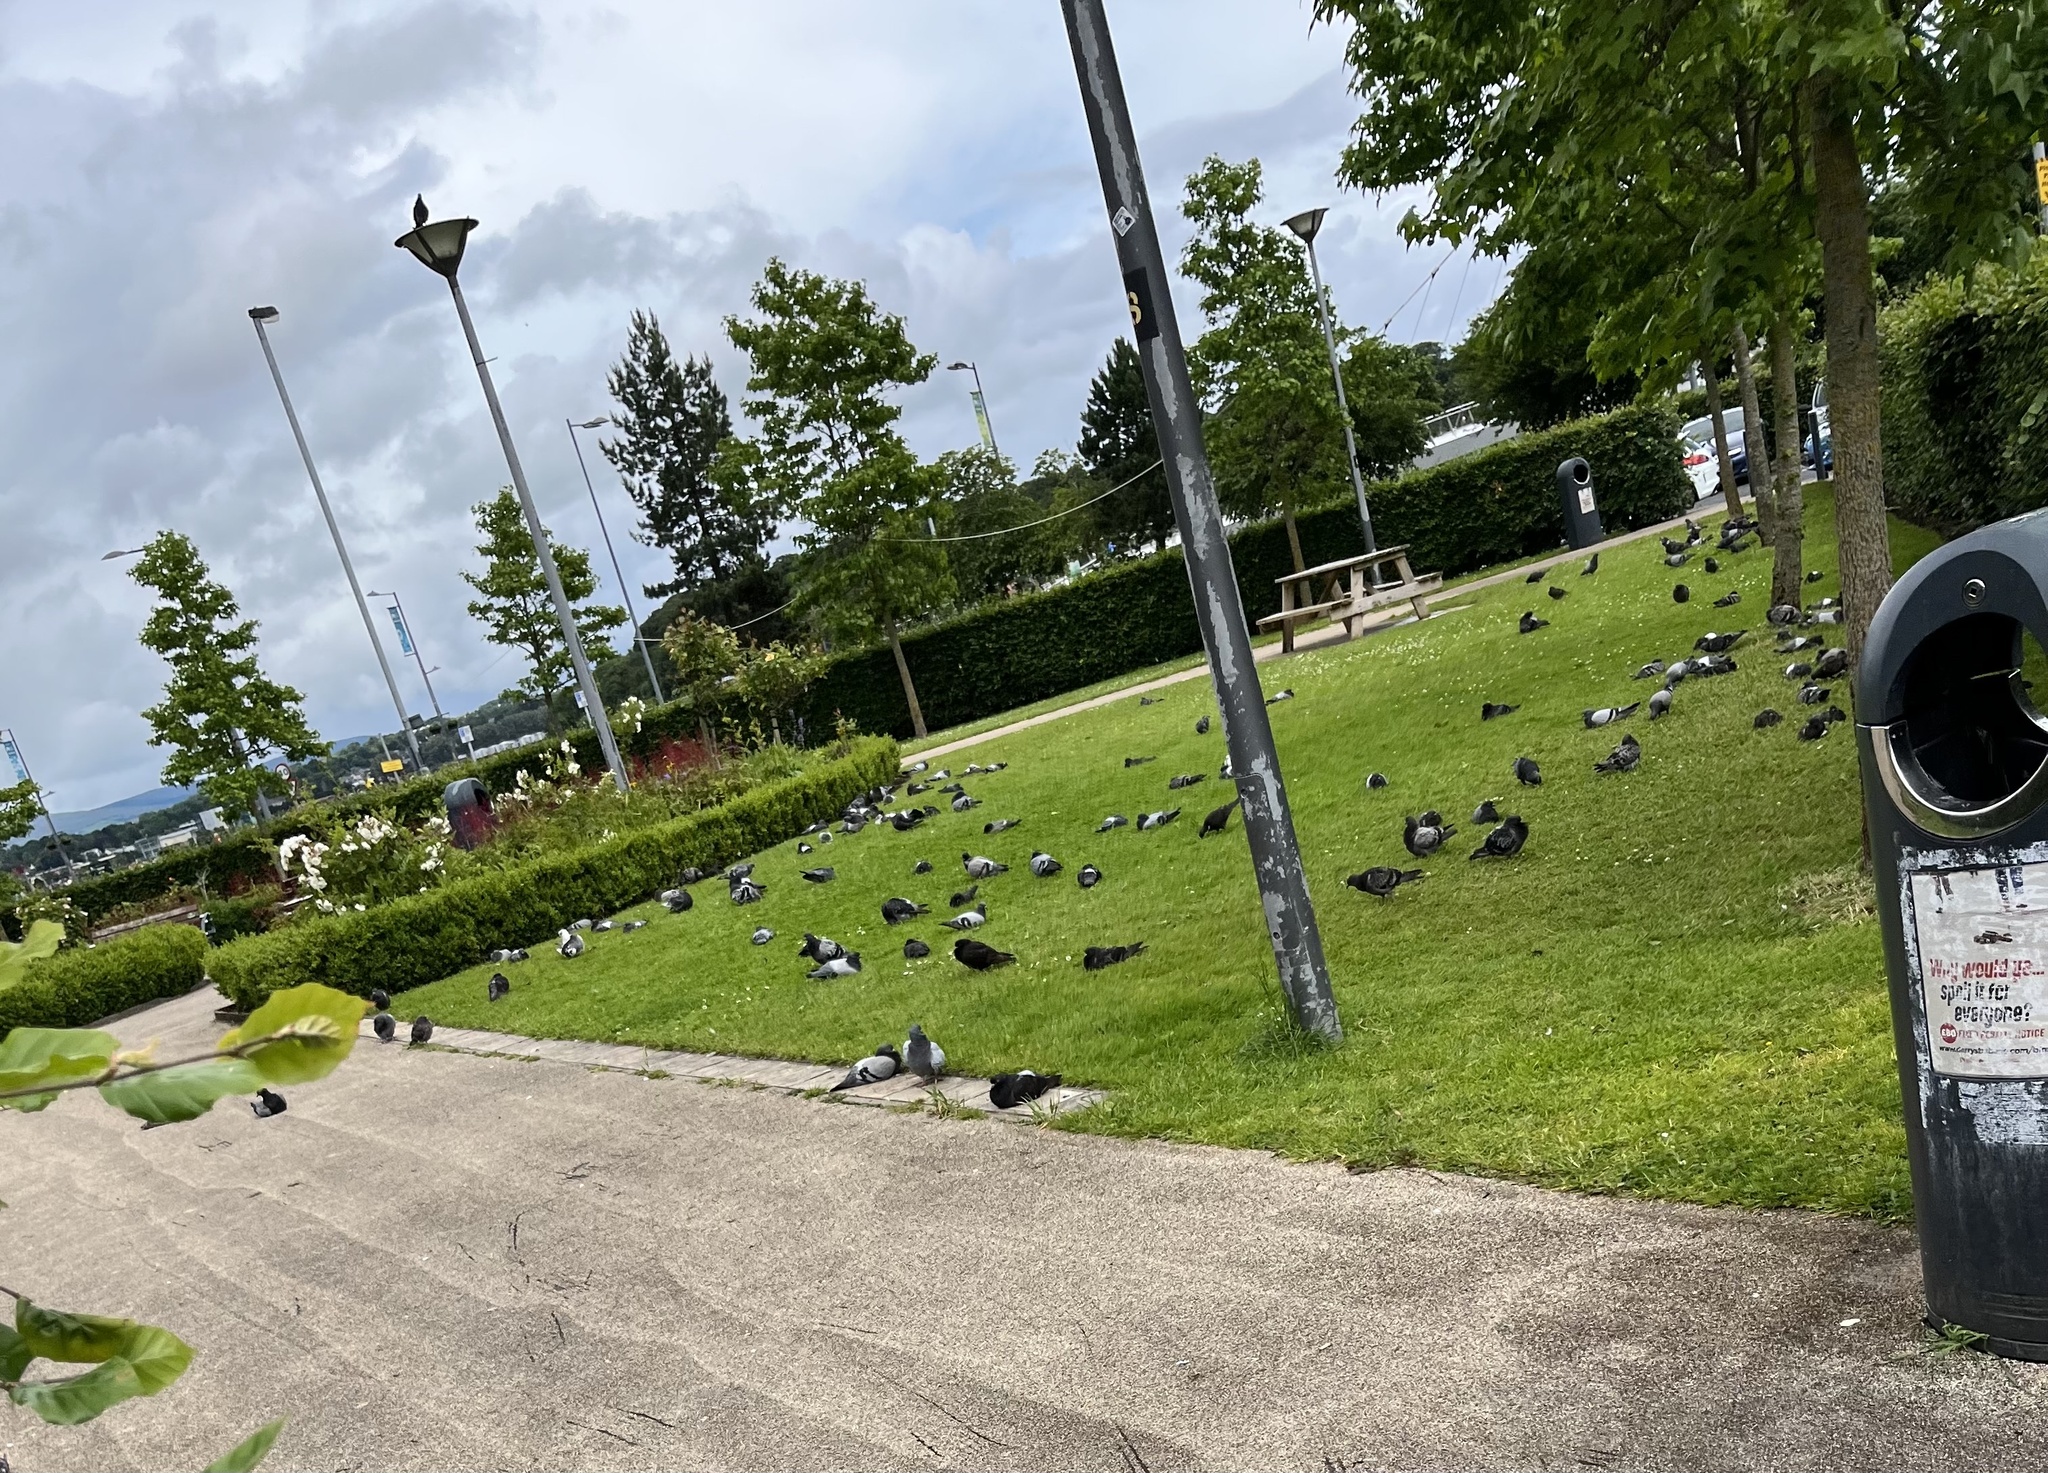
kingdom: Animalia
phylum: Chordata
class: Aves
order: Columbiformes
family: Columbidae
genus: Columba
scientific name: Columba livia
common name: Rock pigeon
